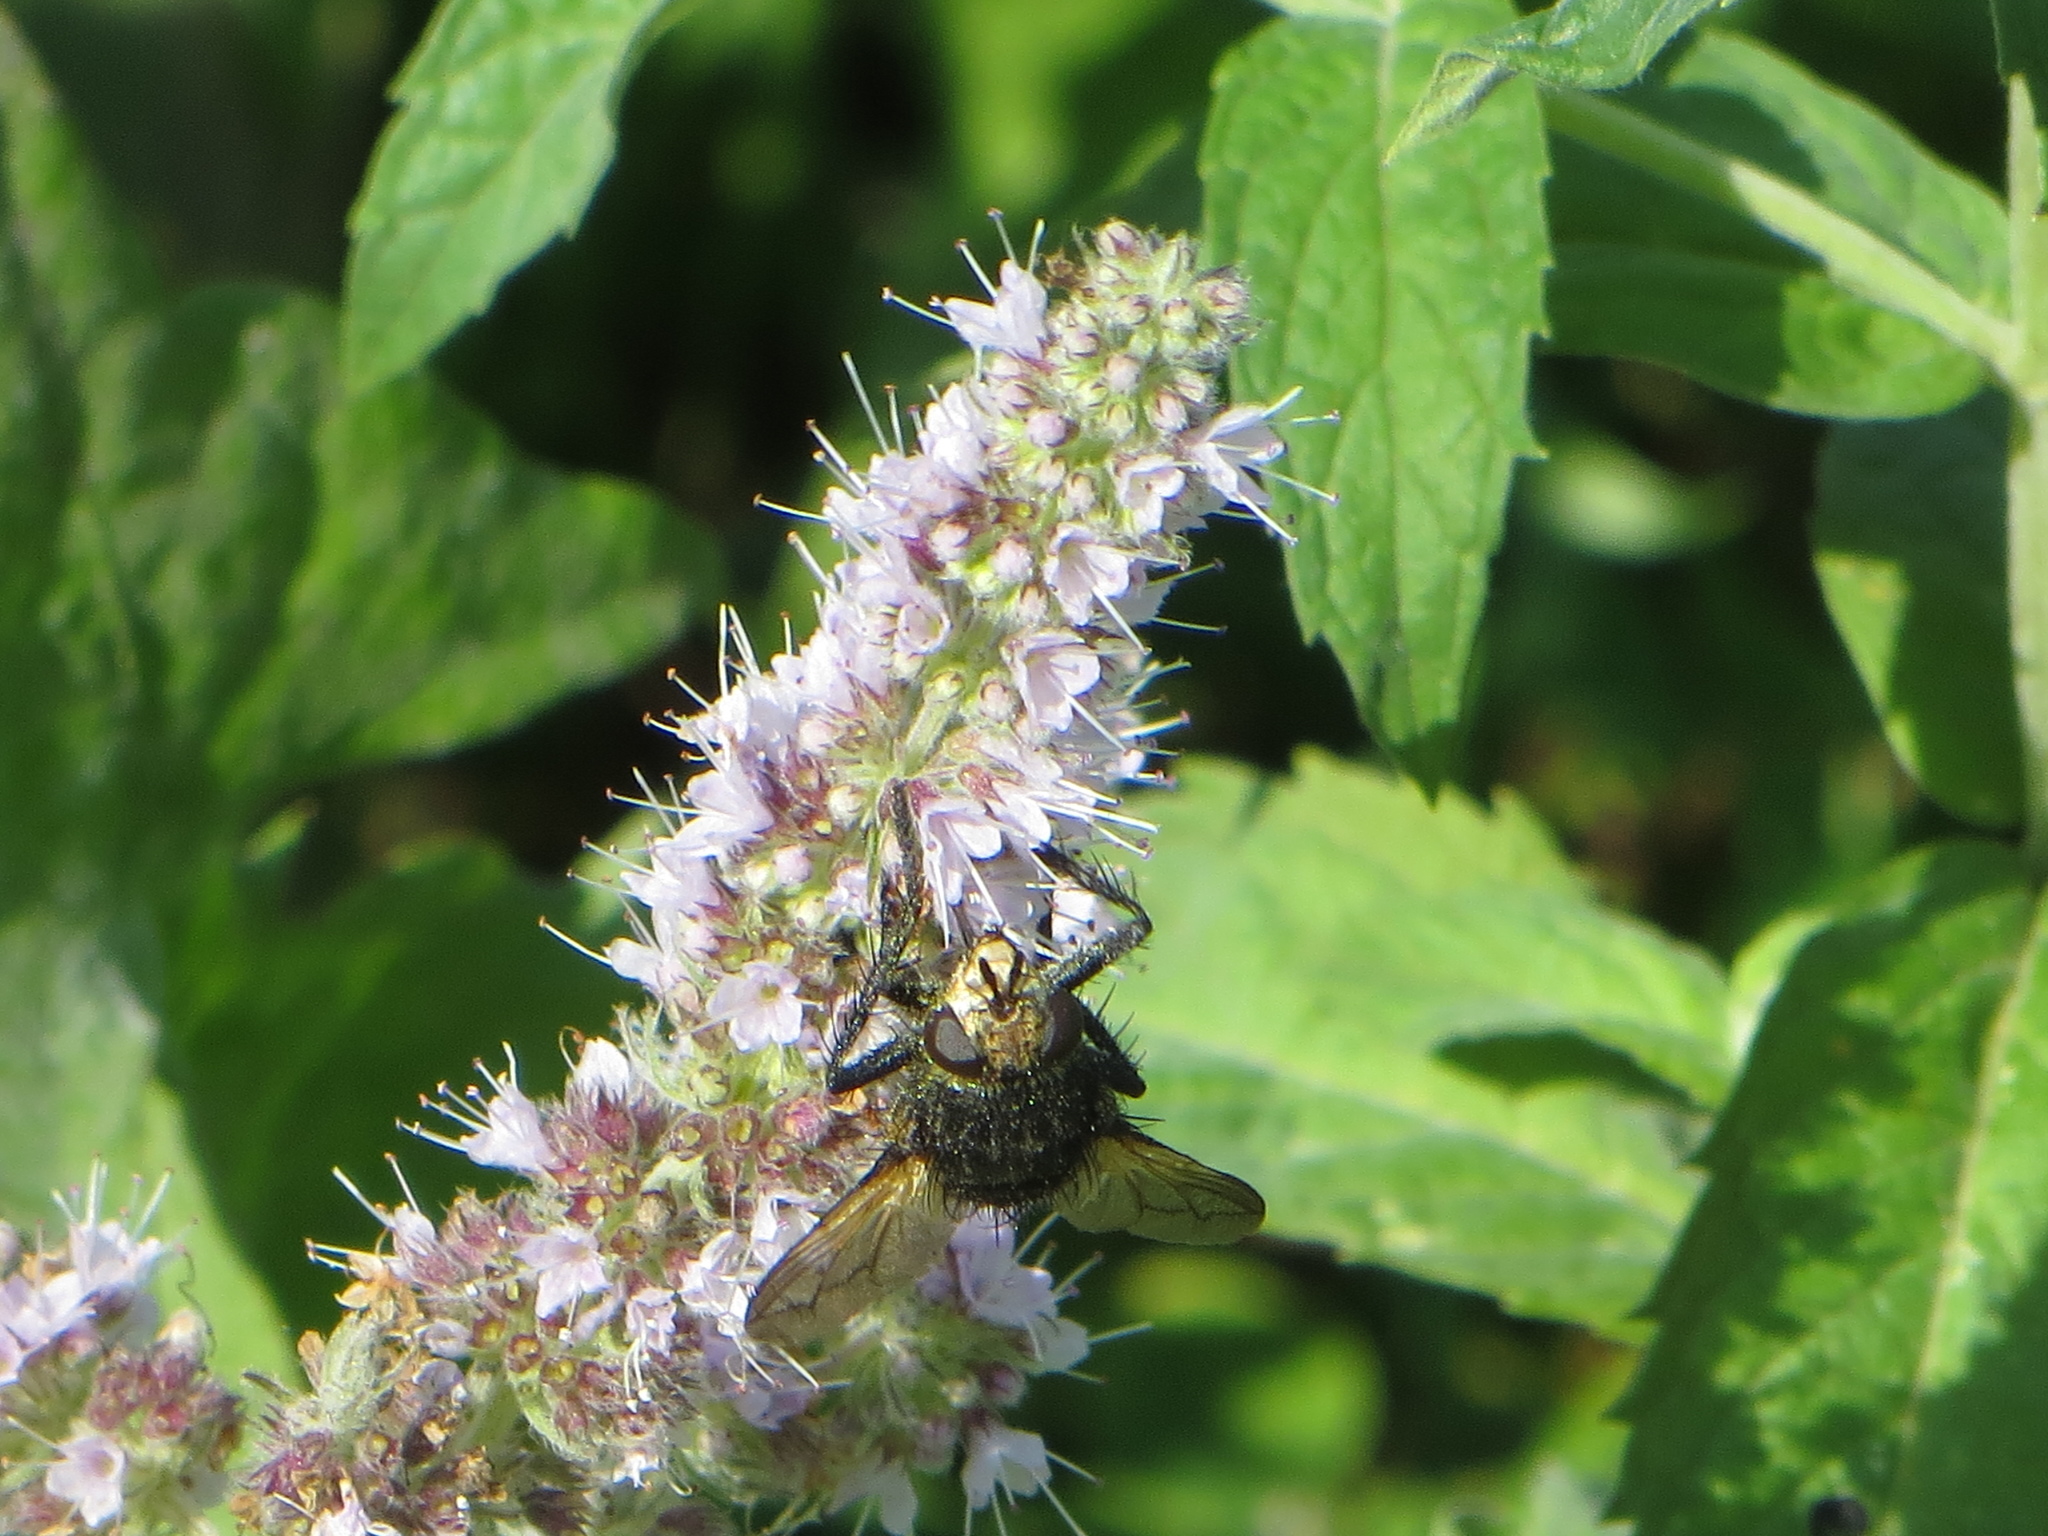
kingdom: Animalia
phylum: Arthropoda
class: Insecta
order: Diptera
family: Tachinidae
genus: Nowickia
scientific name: Nowickia ferox
